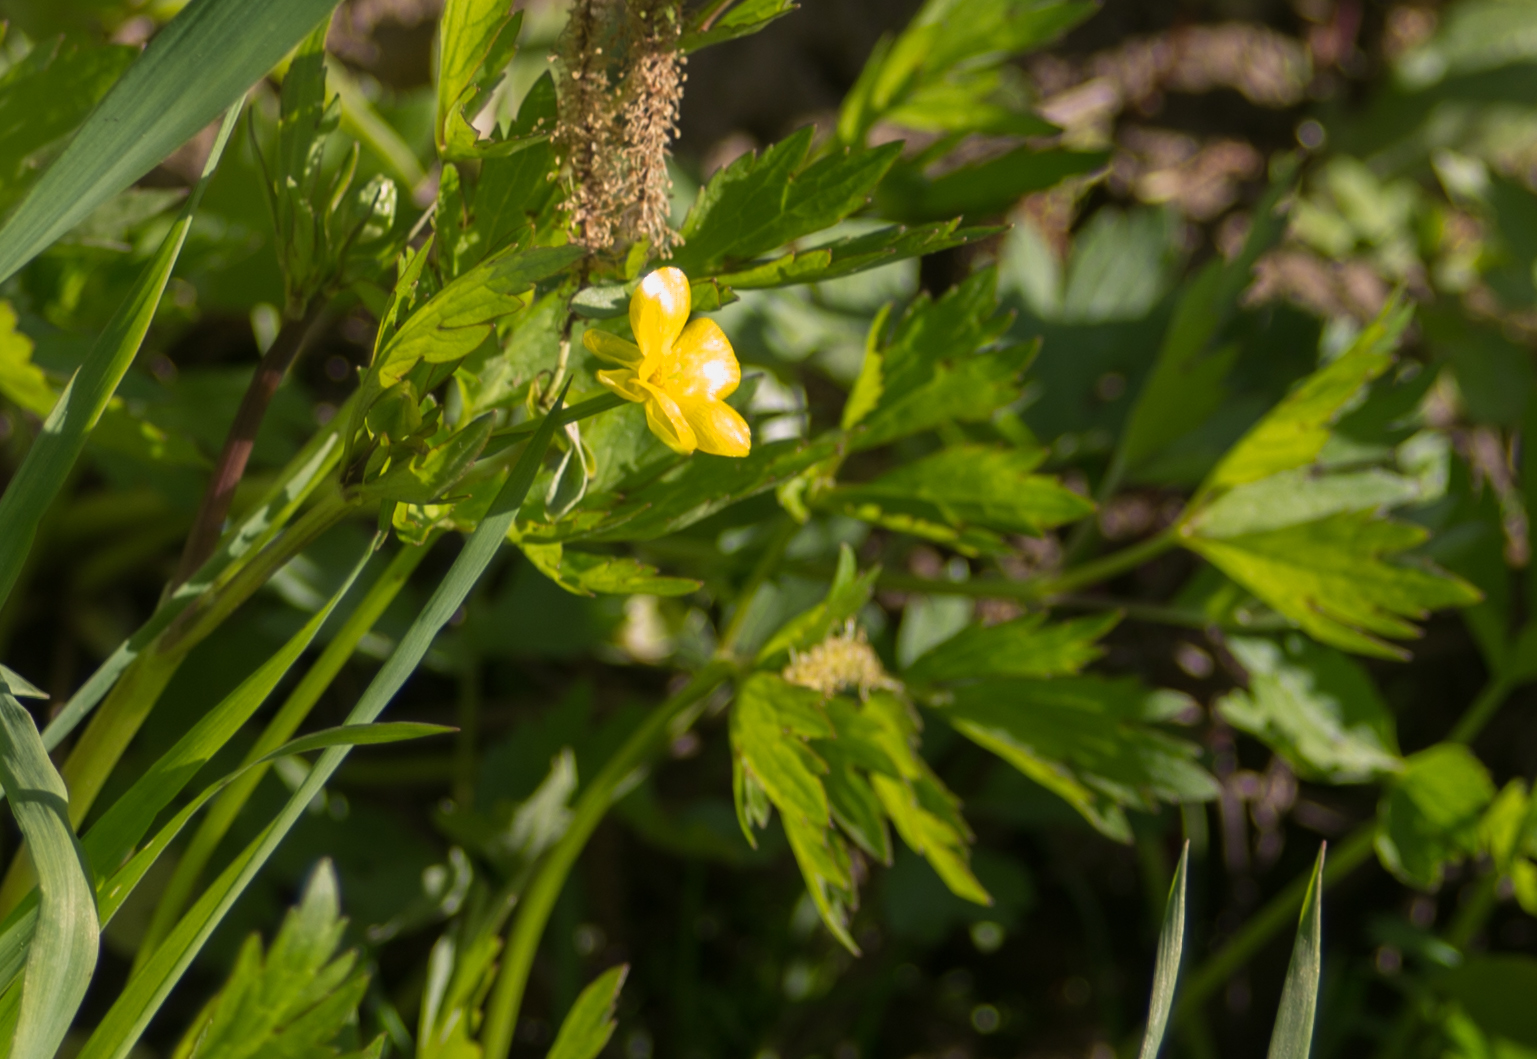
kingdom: Plantae
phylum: Tracheophyta
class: Magnoliopsida
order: Ranunculales
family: Ranunculaceae
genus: Ranunculus
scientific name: Ranunculus repens
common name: Creeping buttercup
